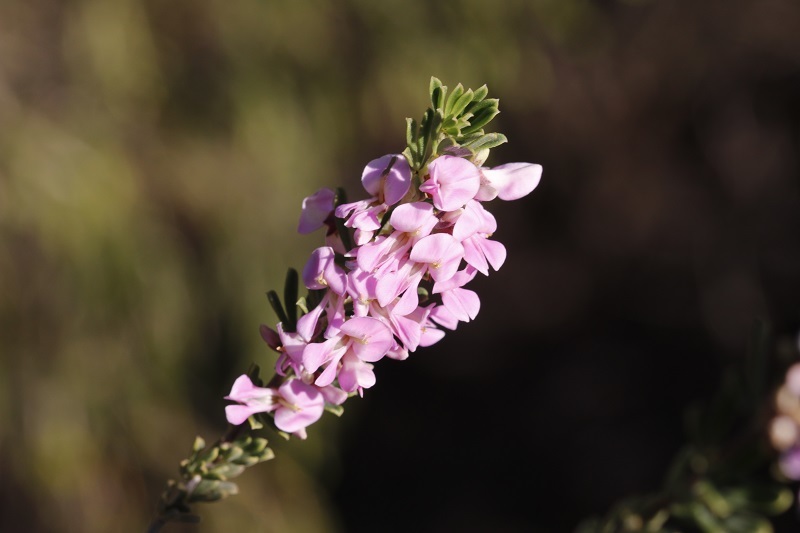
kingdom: Plantae
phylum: Tracheophyta
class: Magnoliopsida
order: Fabales
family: Fabaceae
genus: Indigofera
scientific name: Indigofera flabellata
